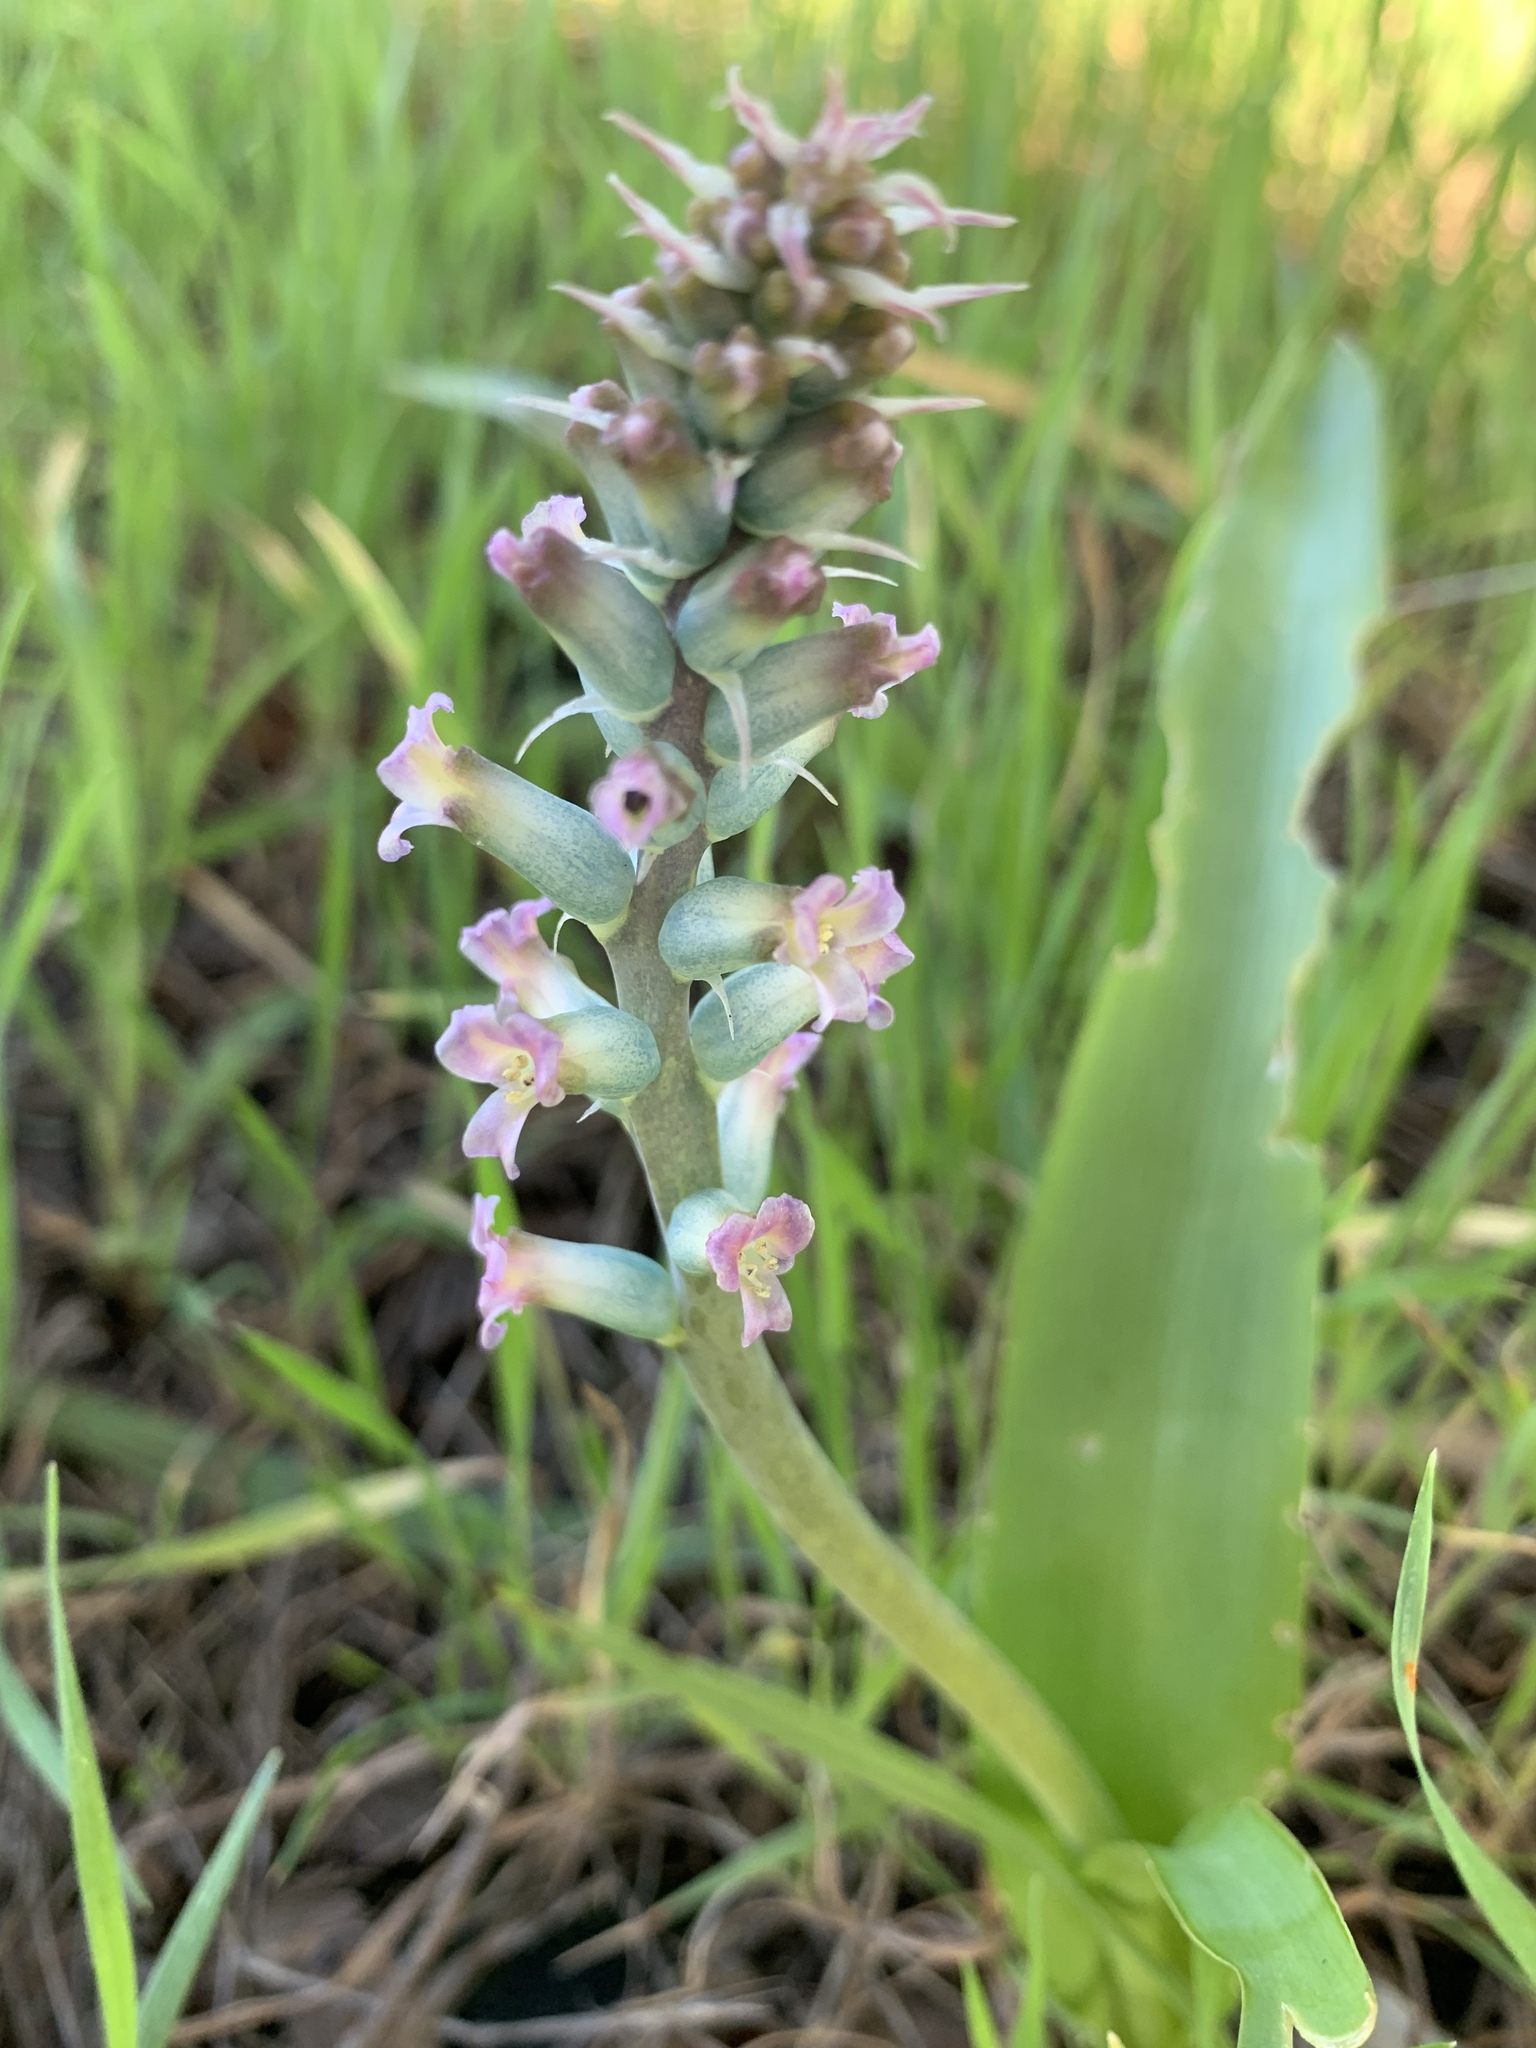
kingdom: Plantae
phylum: Tracheophyta
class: Liliopsida
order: Asparagales
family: Asparagaceae
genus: Lachenalia
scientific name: Lachenalia fistulosa
